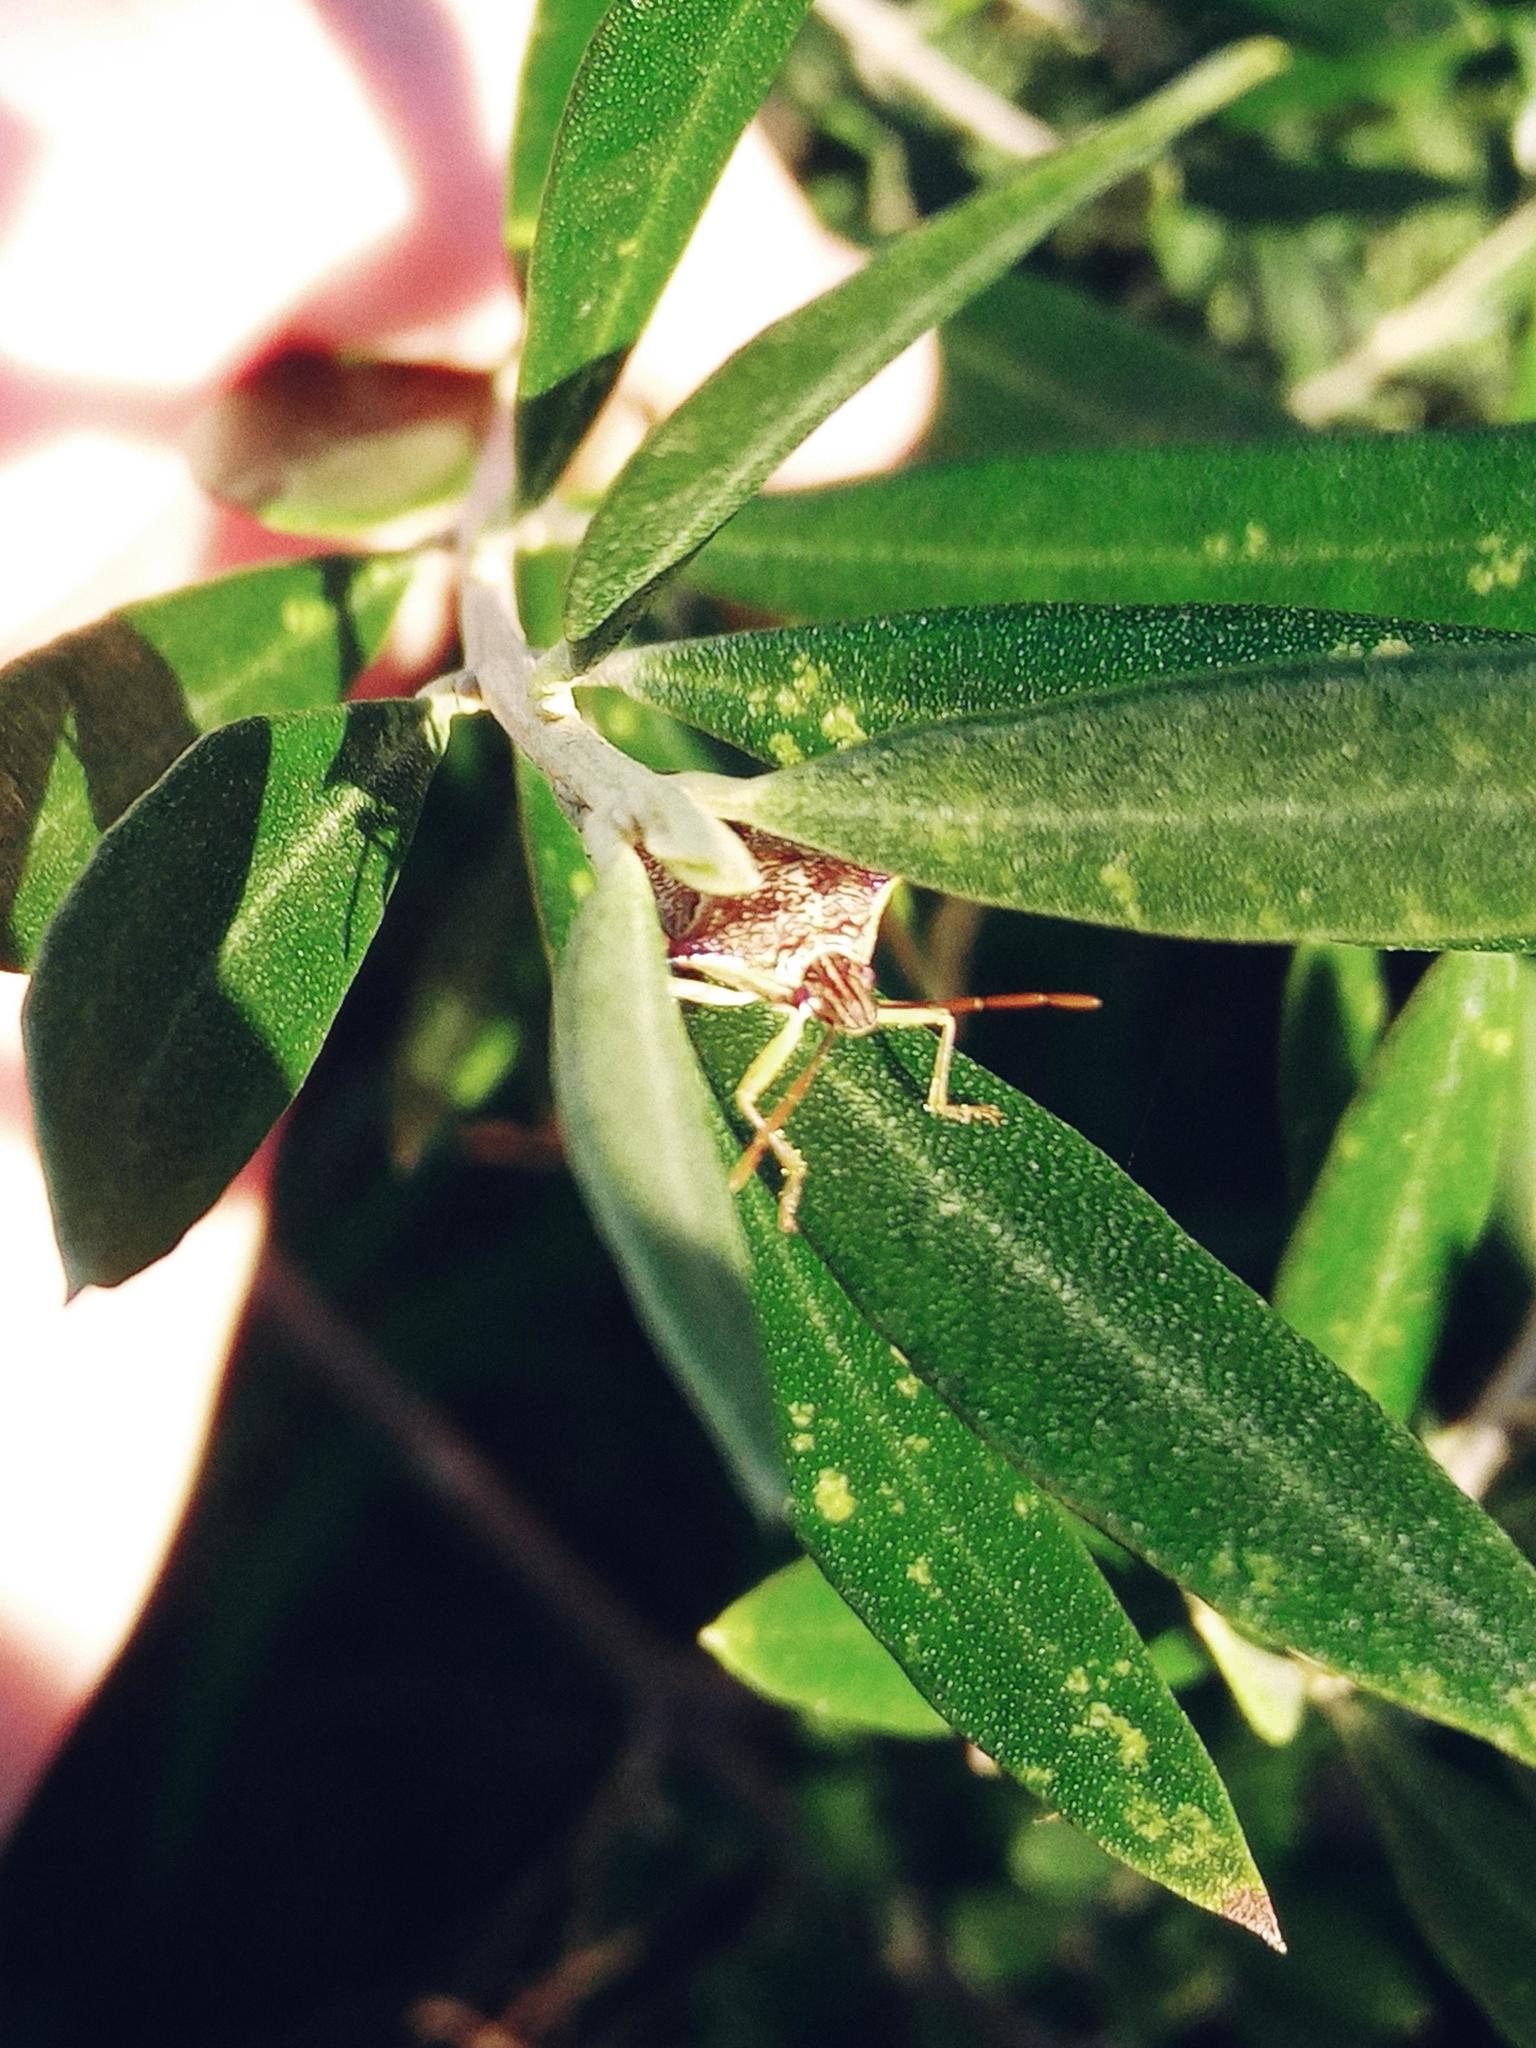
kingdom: Animalia
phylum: Arthropoda
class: Insecta
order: Hemiptera
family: Pentatomidae
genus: Oechalia
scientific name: Oechalia schellenbergii
